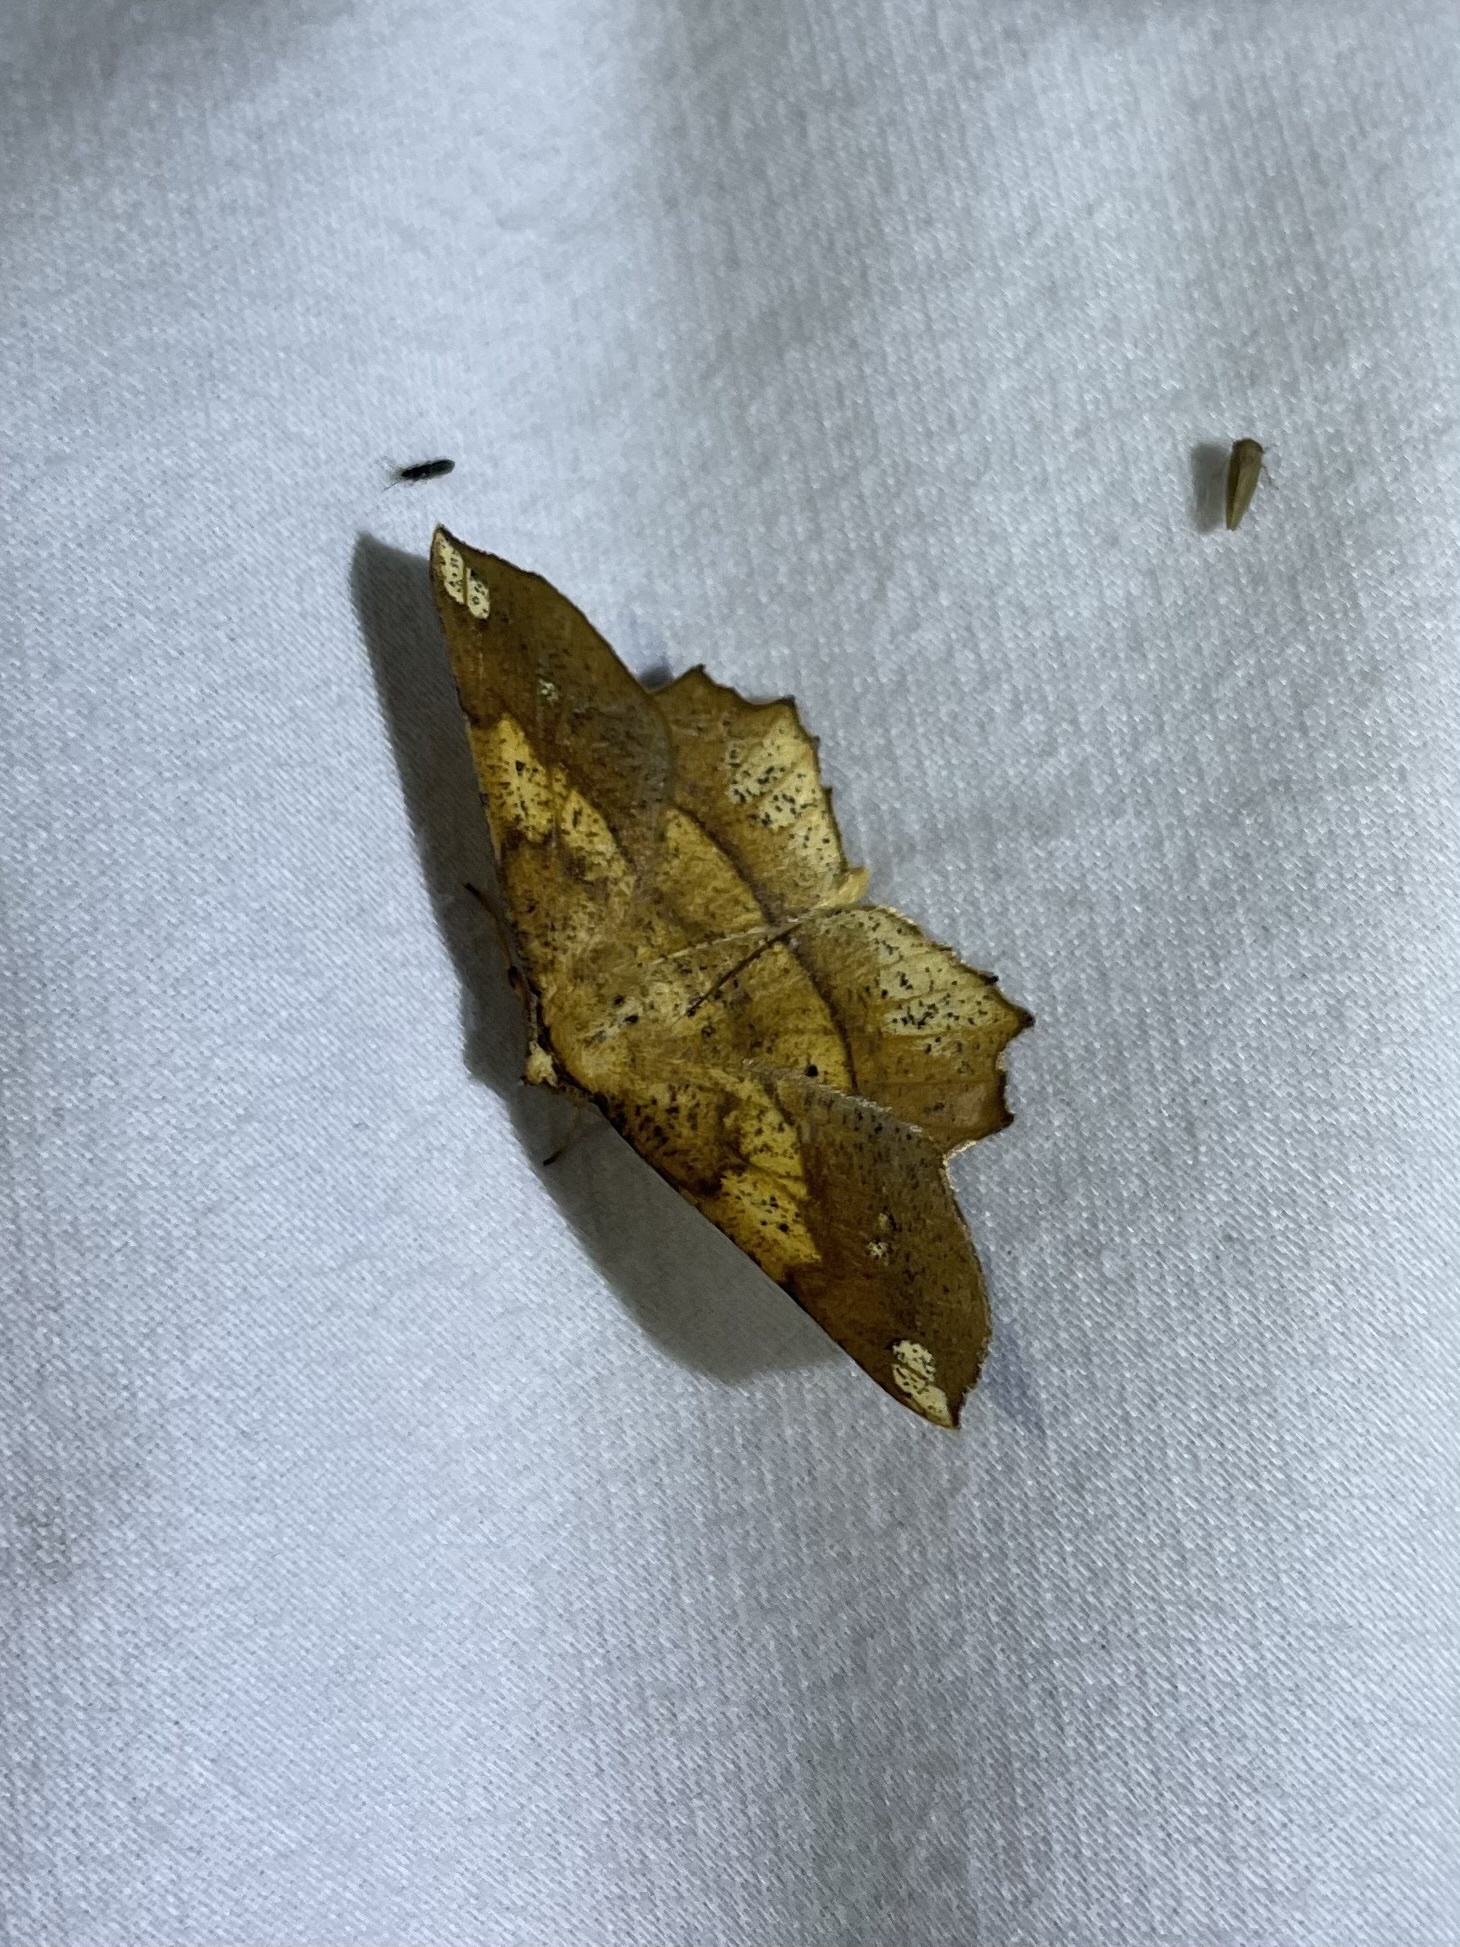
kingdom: Animalia
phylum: Arthropoda
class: Insecta
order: Lepidoptera
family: Geometridae
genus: Euchlaena
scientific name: Euchlaena amoenaria
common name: Deep yellow euchlaena
